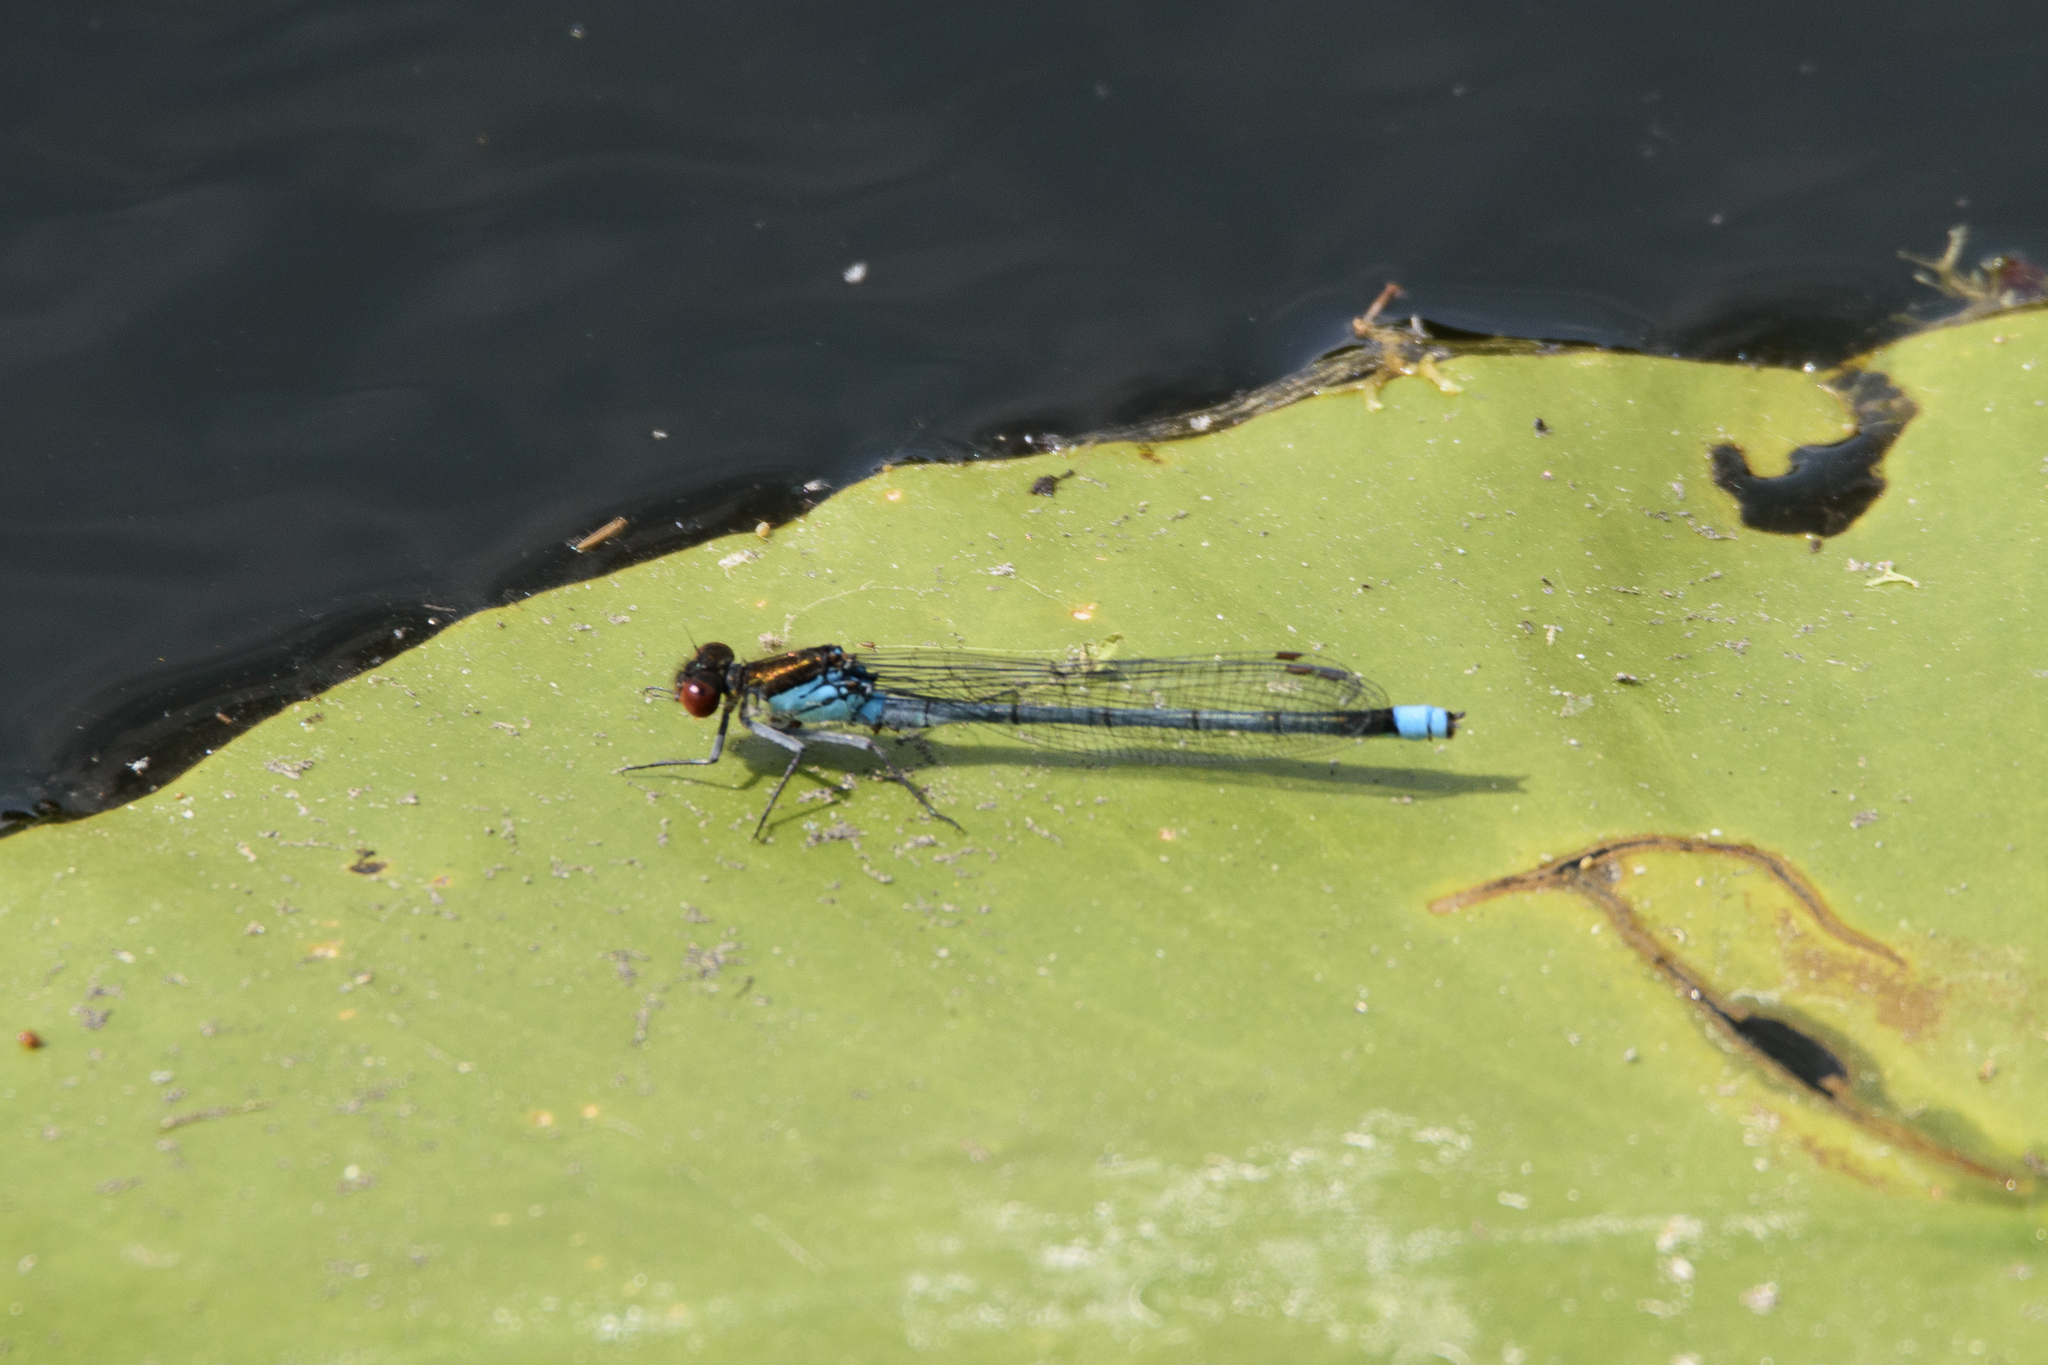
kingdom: Animalia
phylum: Arthropoda
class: Insecta
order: Odonata
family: Coenagrionidae
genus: Erythromma
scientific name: Erythromma najas
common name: Red-eyed damselfly
